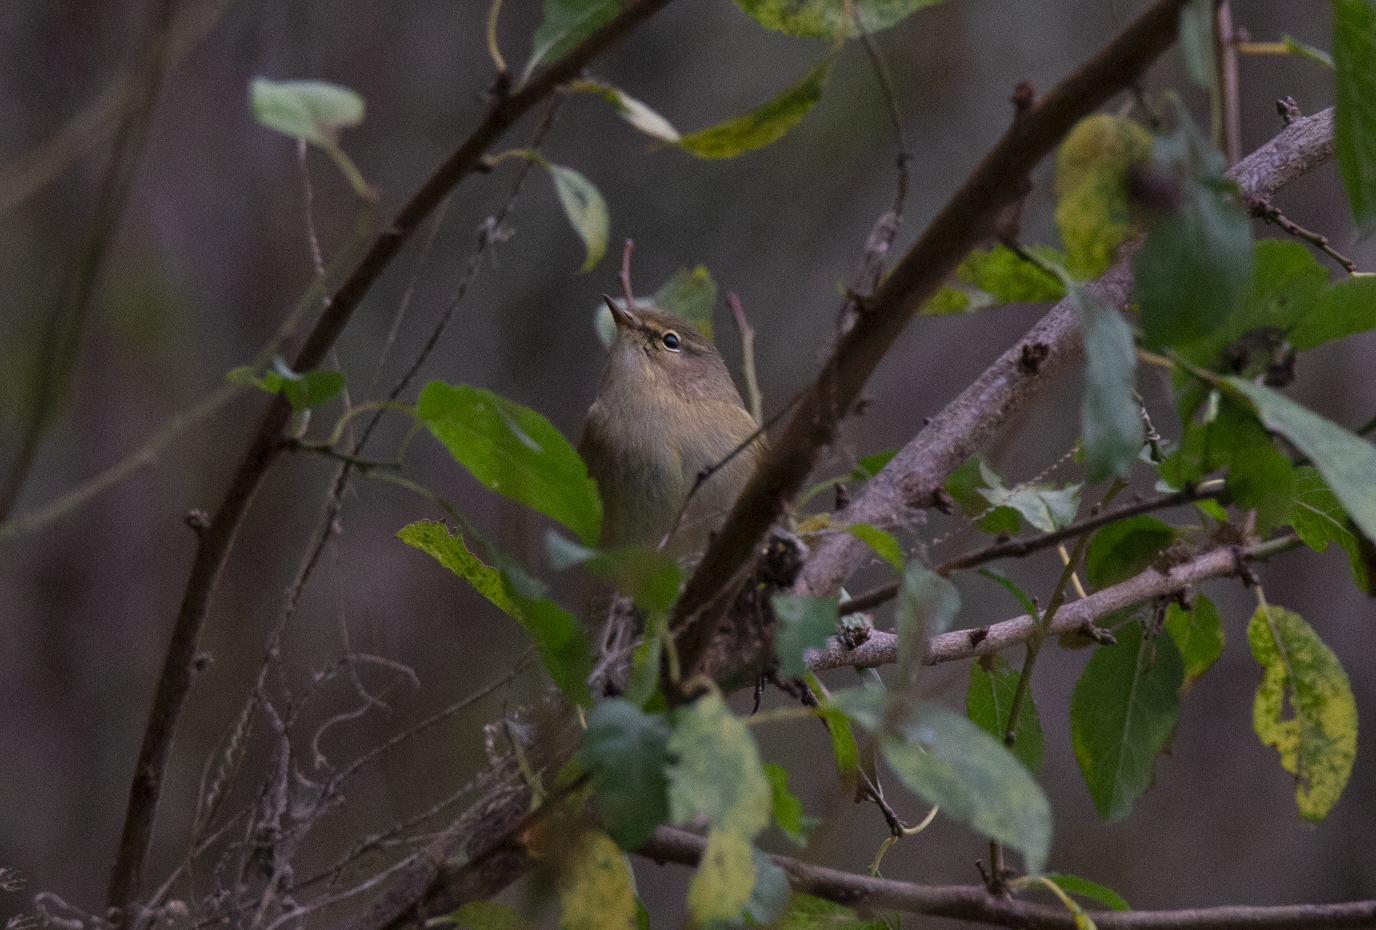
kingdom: Animalia
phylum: Chordata
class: Aves
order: Passeriformes
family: Phylloscopidae
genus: Phylloscopus
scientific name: Phylloscopus collybita
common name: Common chiffchaff
